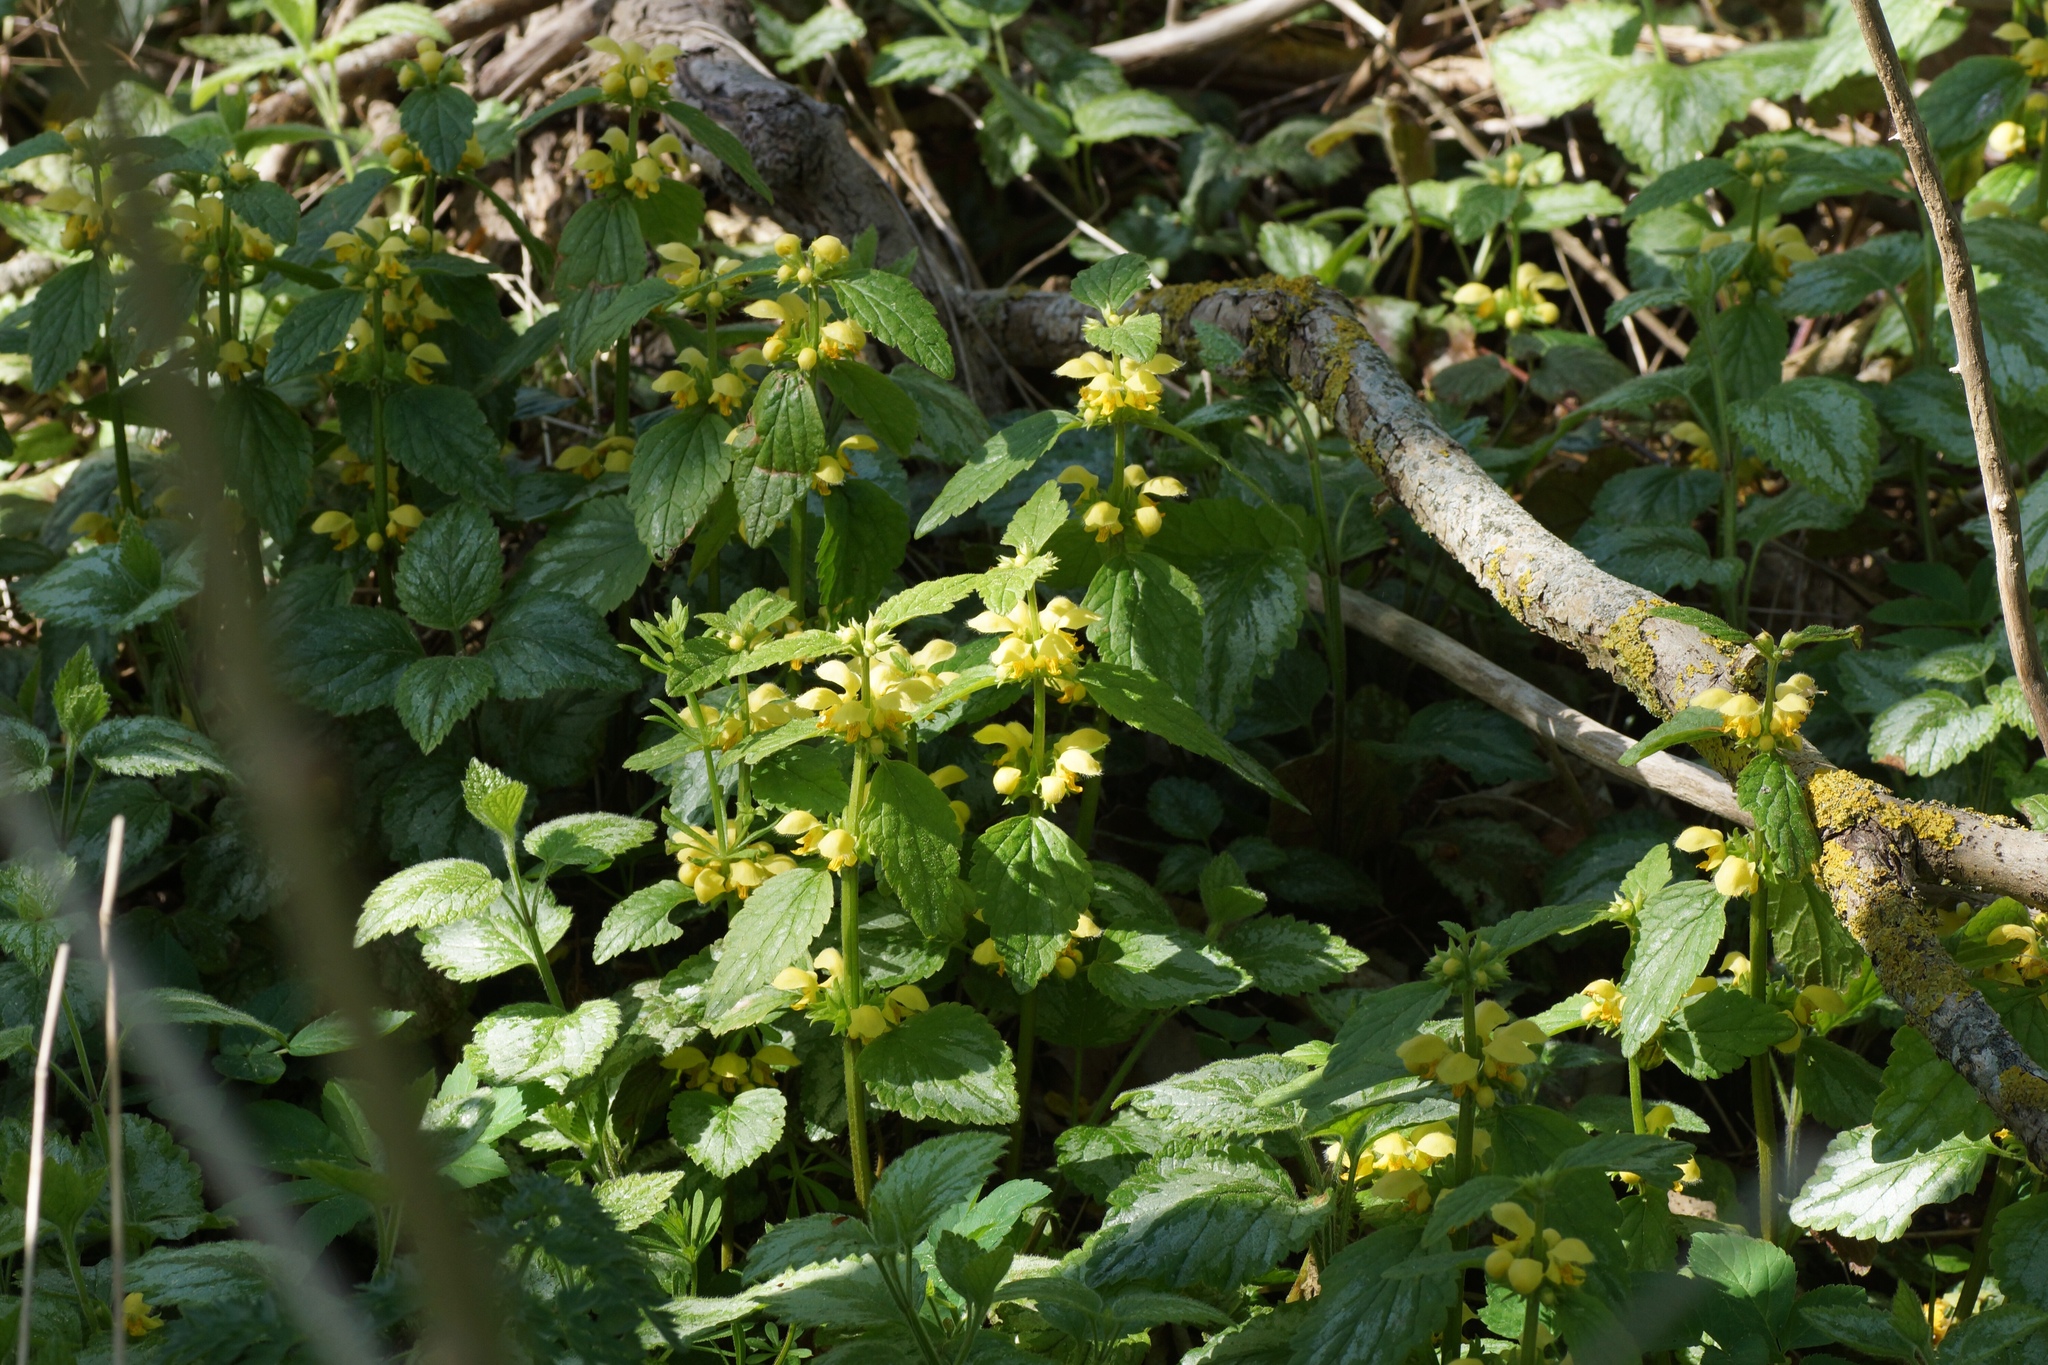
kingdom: Plantae
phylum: Tracheophyta
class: Magnoliopsida
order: Lamiales
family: Lamiaceae
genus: Lamium
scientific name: Lamium galeobdolon
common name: Yellow archangel
